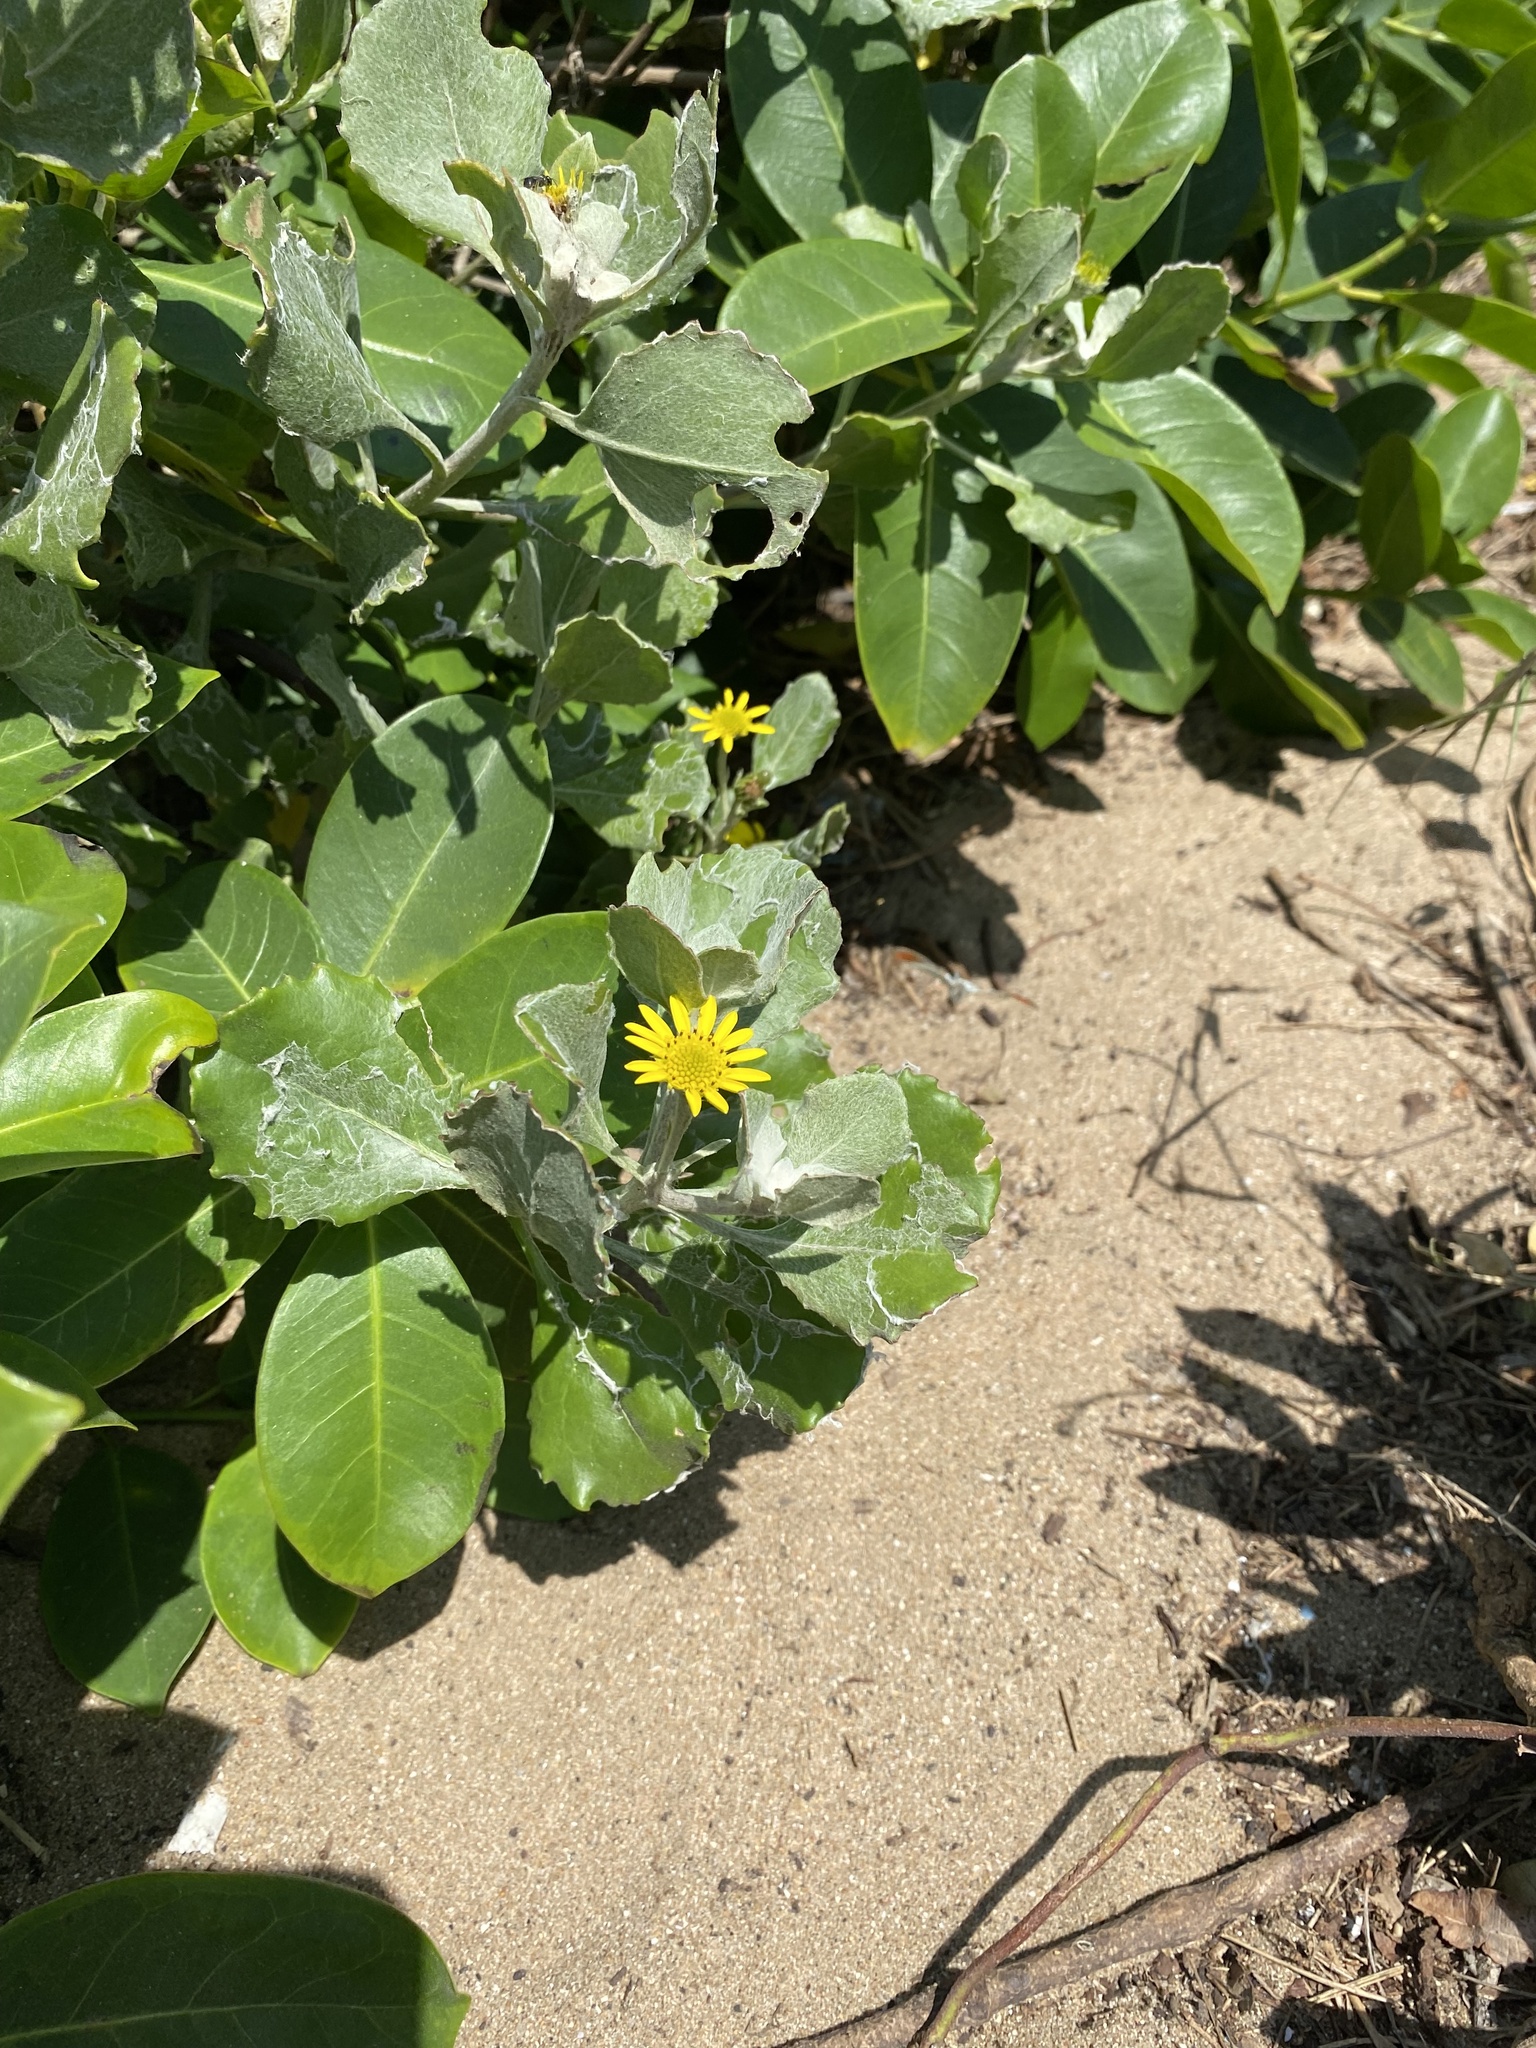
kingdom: Plantae
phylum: Tracheophyta
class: Magnoliopsida
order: Asterales
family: Asteraceae
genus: Osteospermum
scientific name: Osteospermum moniliferum
